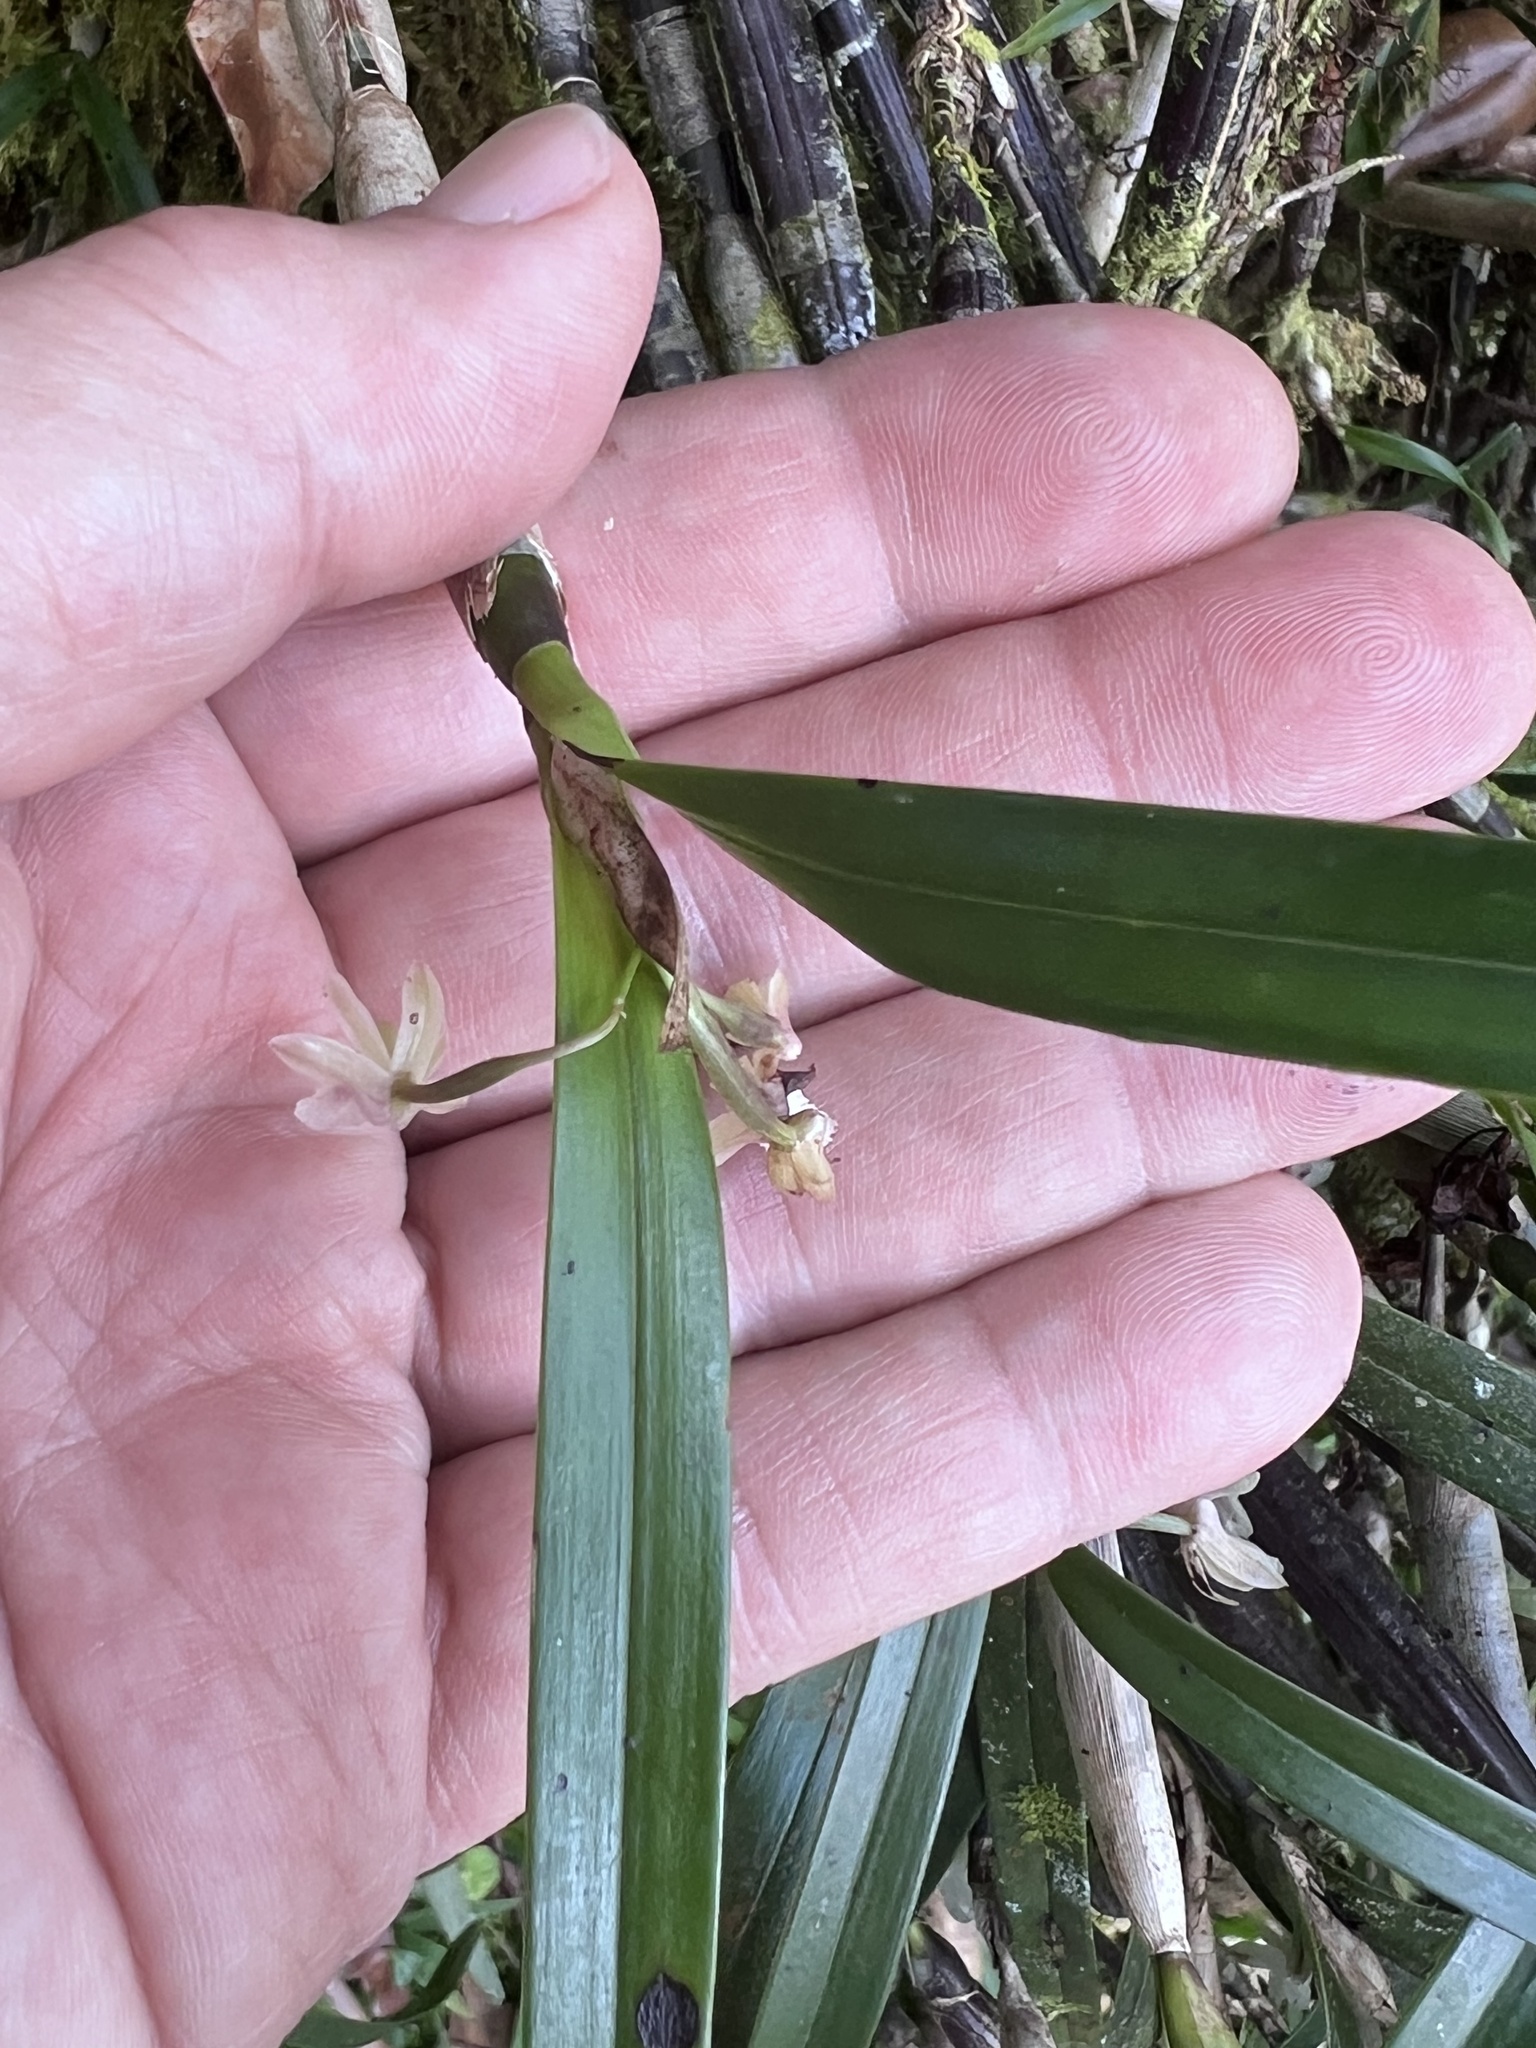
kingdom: Plantae
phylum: Tracheophyta
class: Liliopsida
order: Asparagales
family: Orchidaceae
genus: Scaphyglottis
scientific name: Scaphyglottis mesocopis
